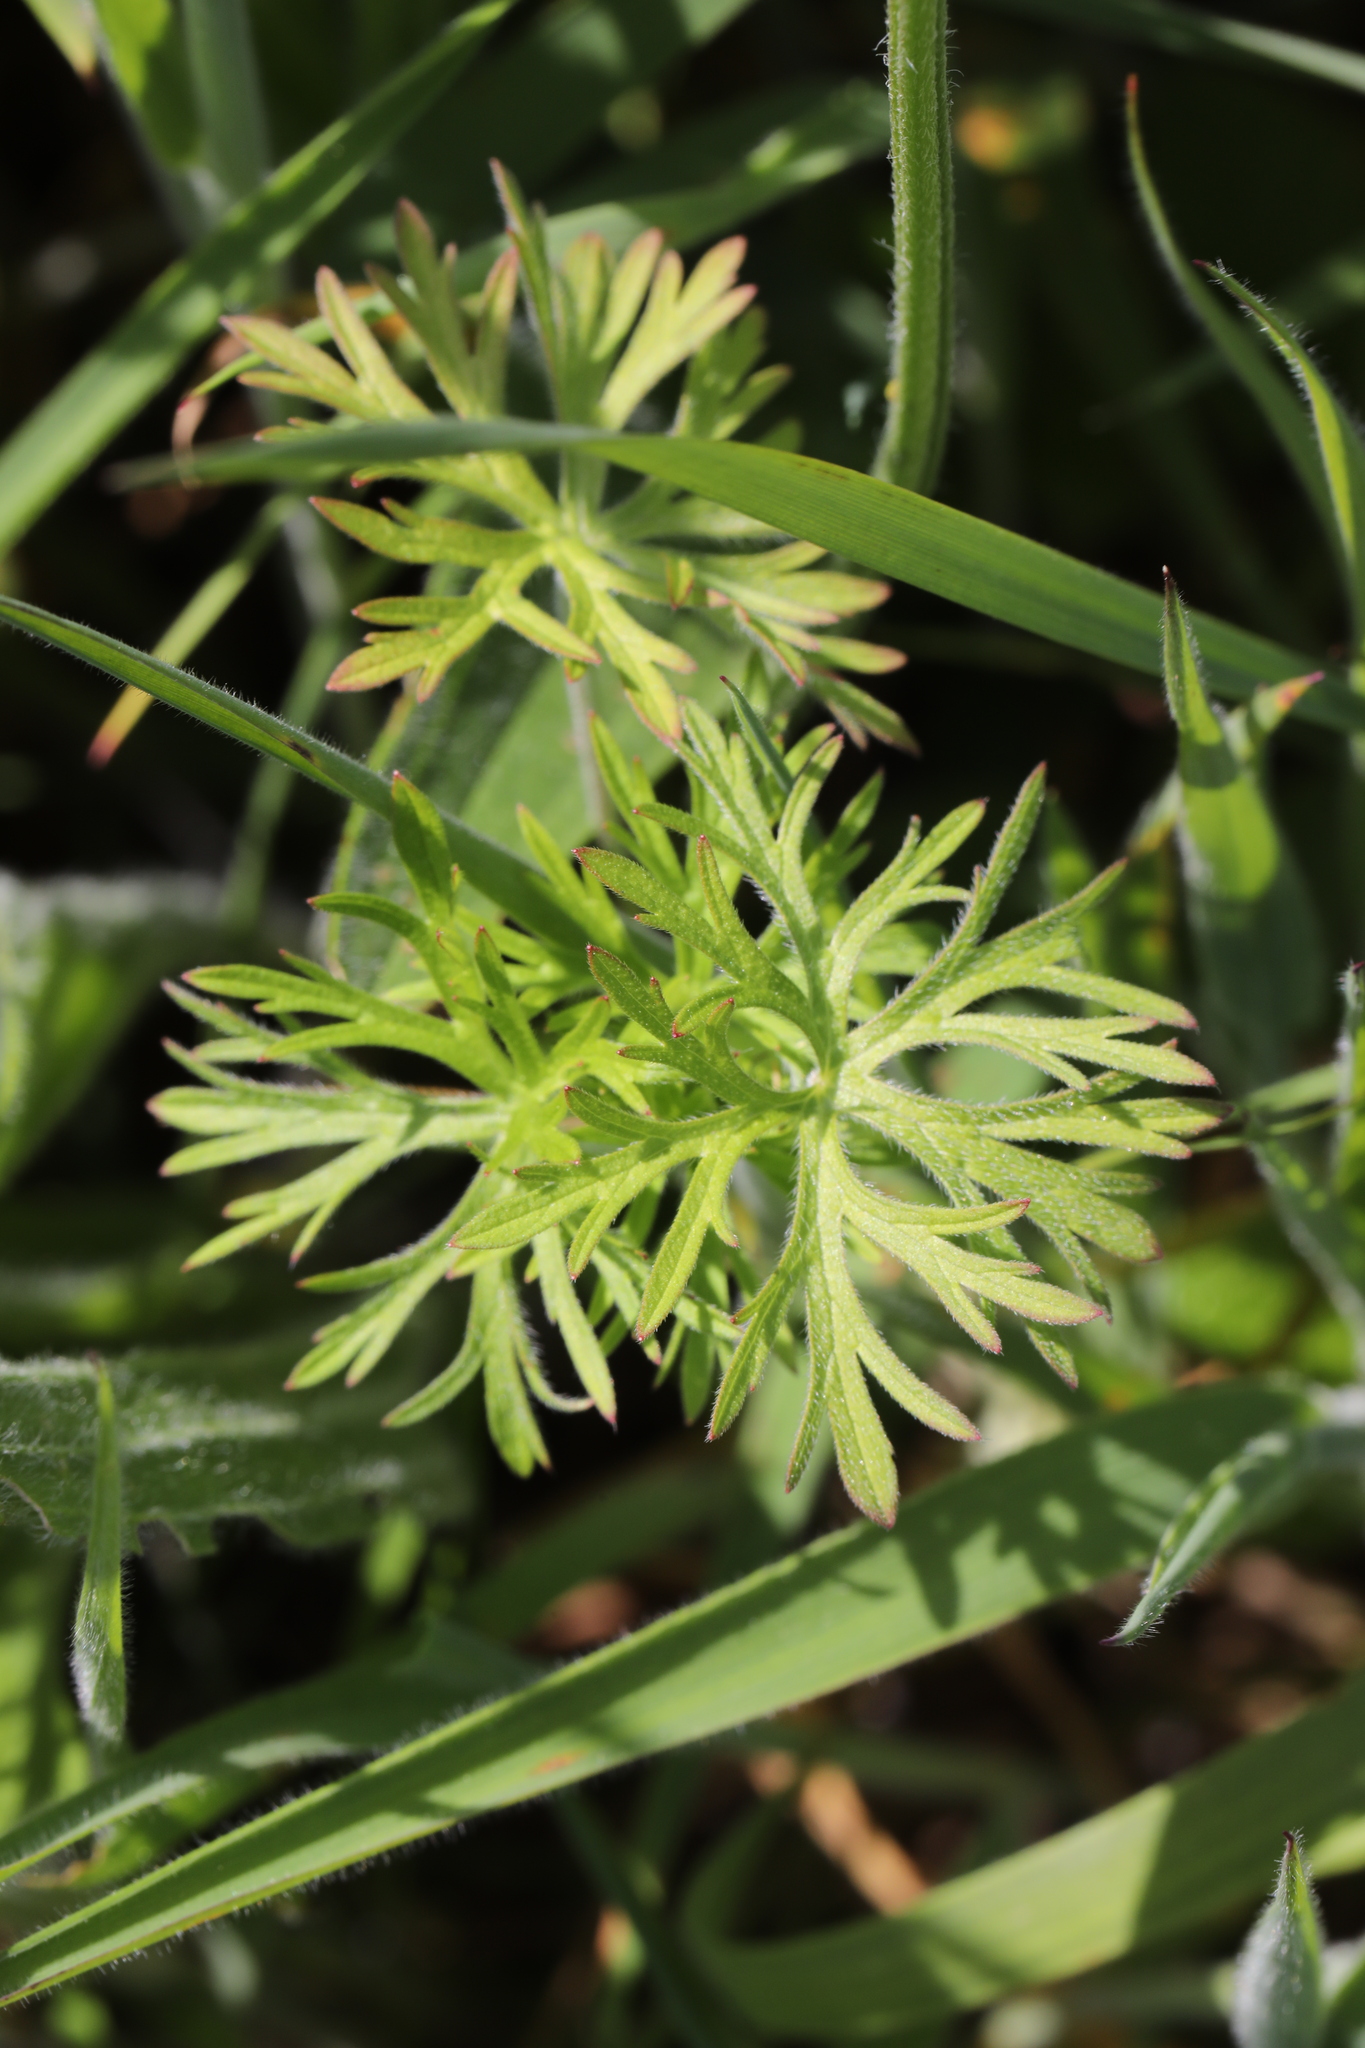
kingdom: Plantae
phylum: Tracheophyta
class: Magnoliopsida
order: Geraniales
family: Geraniaceae
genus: Geranium
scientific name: Geranium dissectum
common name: Cut-leaved crane's-bill
